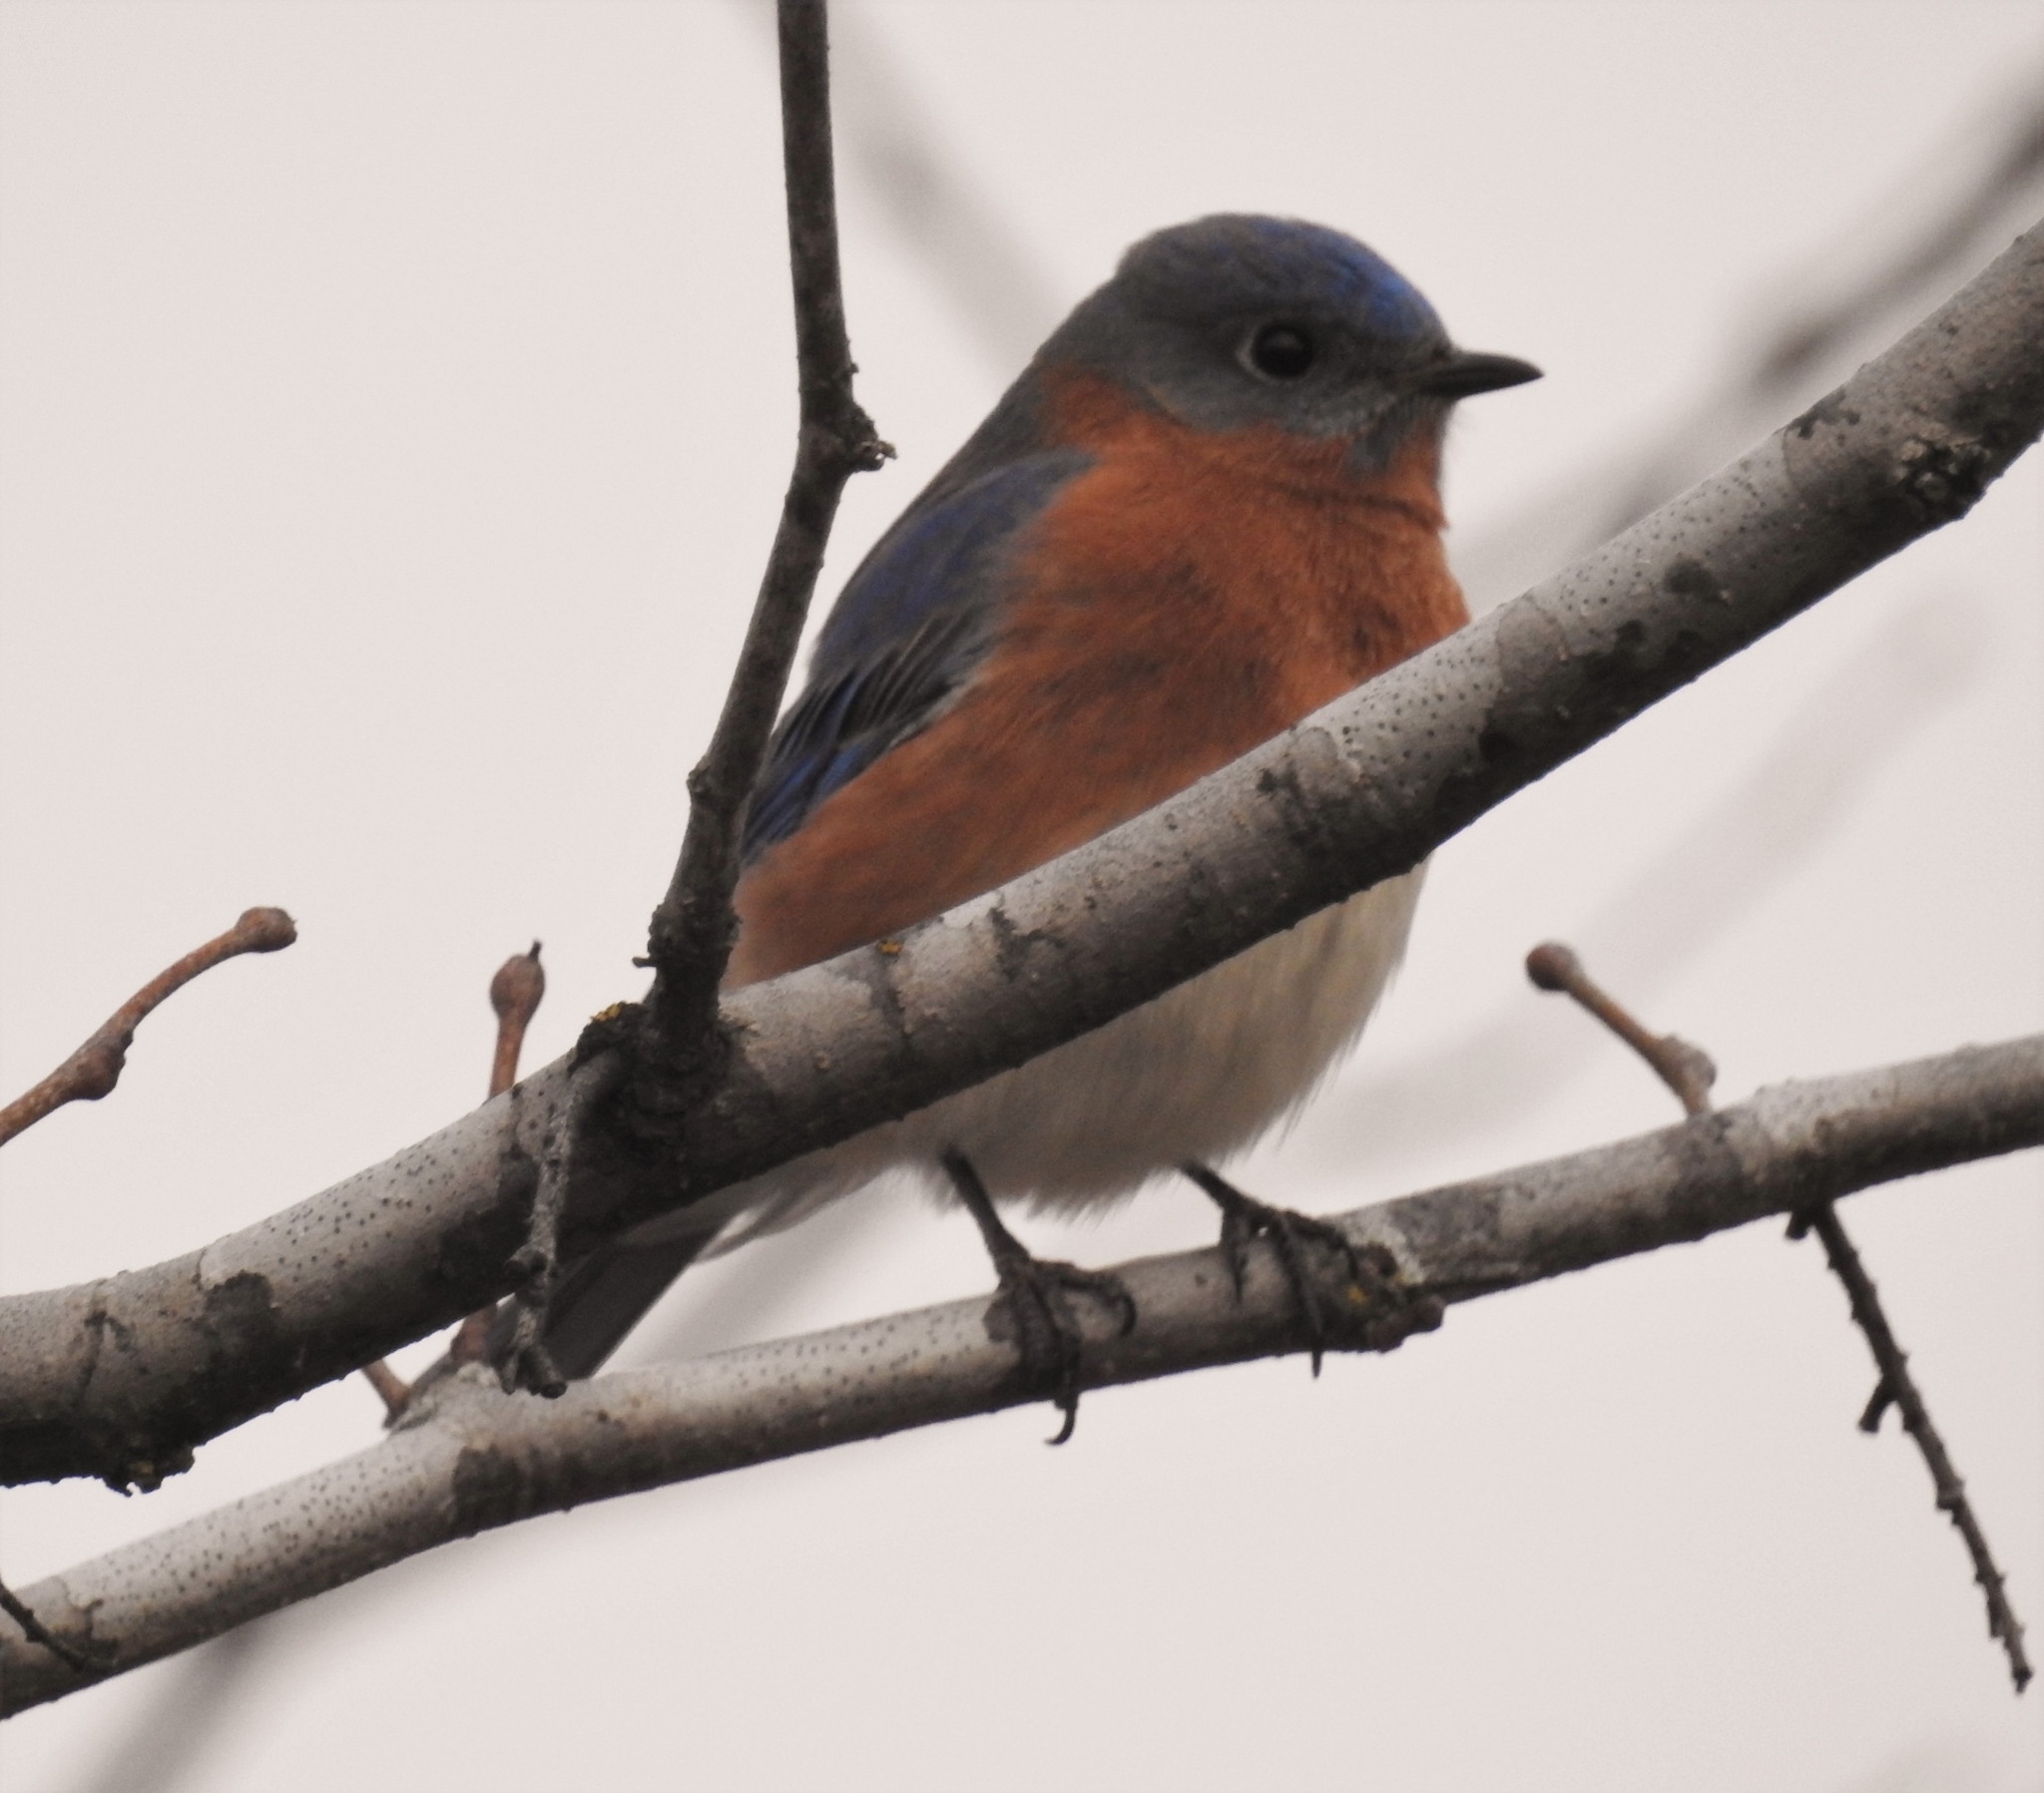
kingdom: Animalia
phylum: Chordata
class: Aves
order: Passeriformes
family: Turdidae
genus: Sialia
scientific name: Sialia sialis
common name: Eastern bluebird
